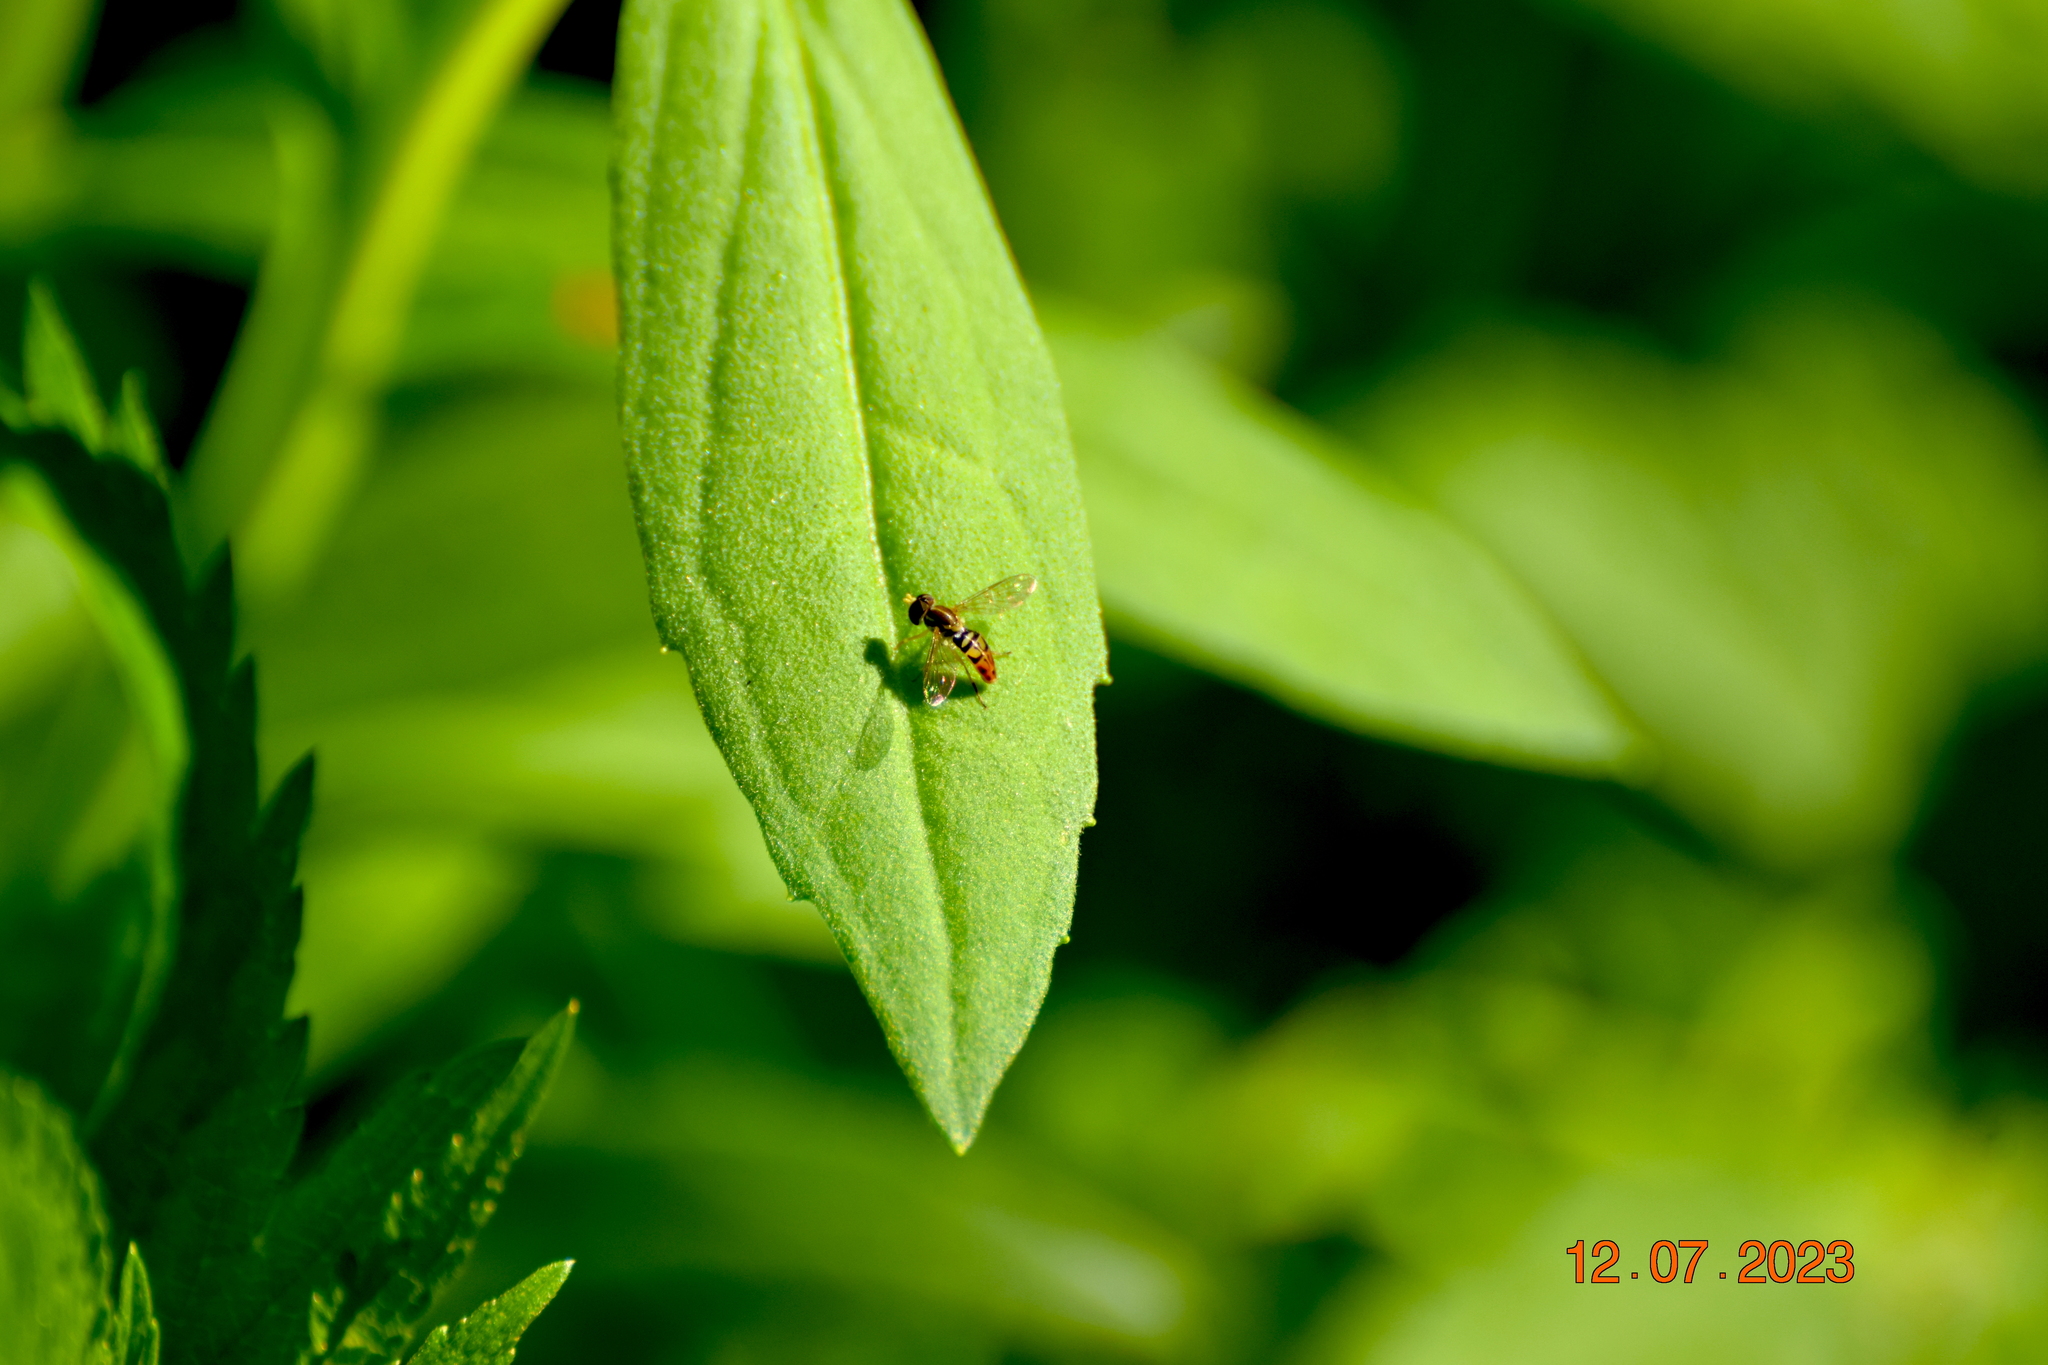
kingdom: Animalia
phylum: Arthropoda
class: Insecta
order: Diptera
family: Syrphidae
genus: Toxomerus
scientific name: Toxomerus marginatus
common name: Syrphid fly
